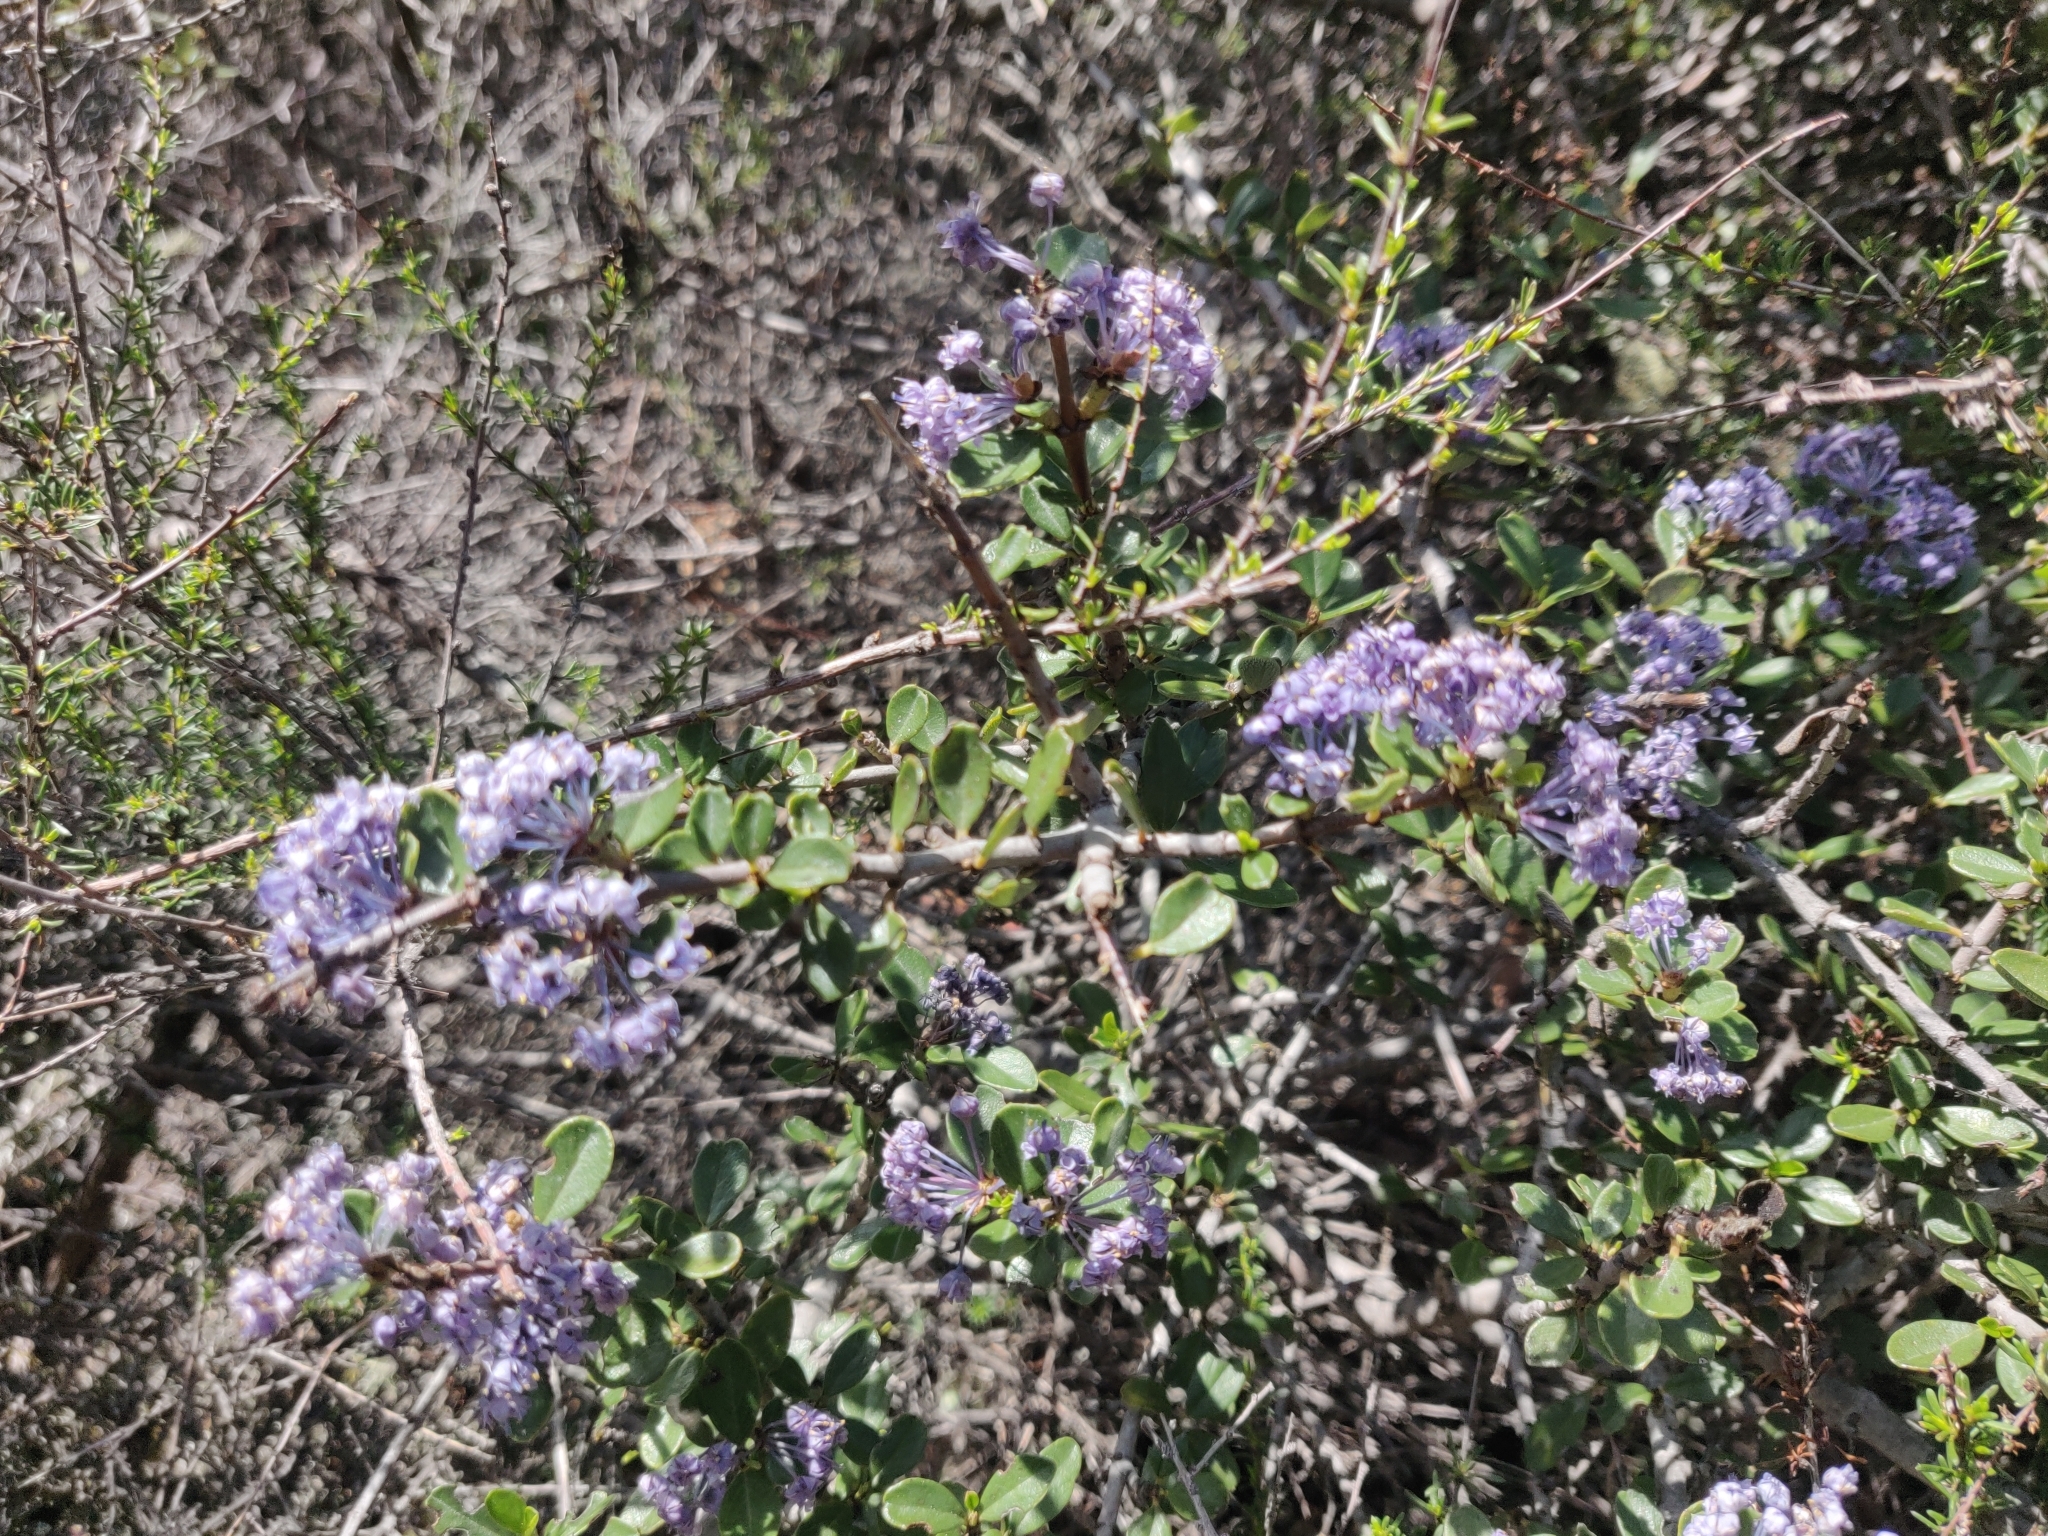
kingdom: Plantae
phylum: Tracheophyta
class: Magnoliopsida
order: Rosales
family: Rhamnaceae
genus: Ceanothus
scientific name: Ceanothus cuneatus
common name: Cuneate ceanothus
